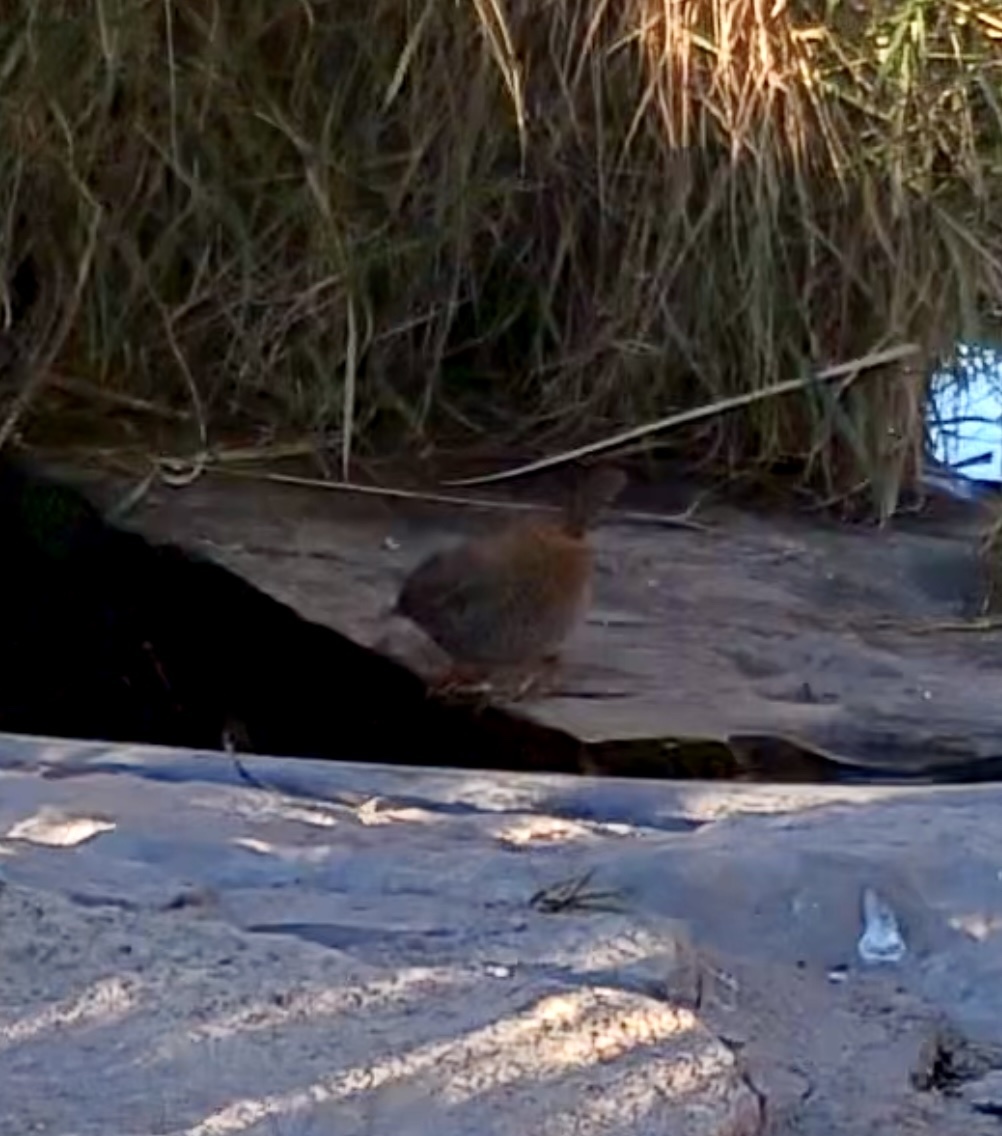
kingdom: Animalia
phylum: Chordata
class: Aves
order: Passeriformes
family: Troglodytidae
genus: Troglodytes
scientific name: Troglodytes troglodytes
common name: Eurasian wren
